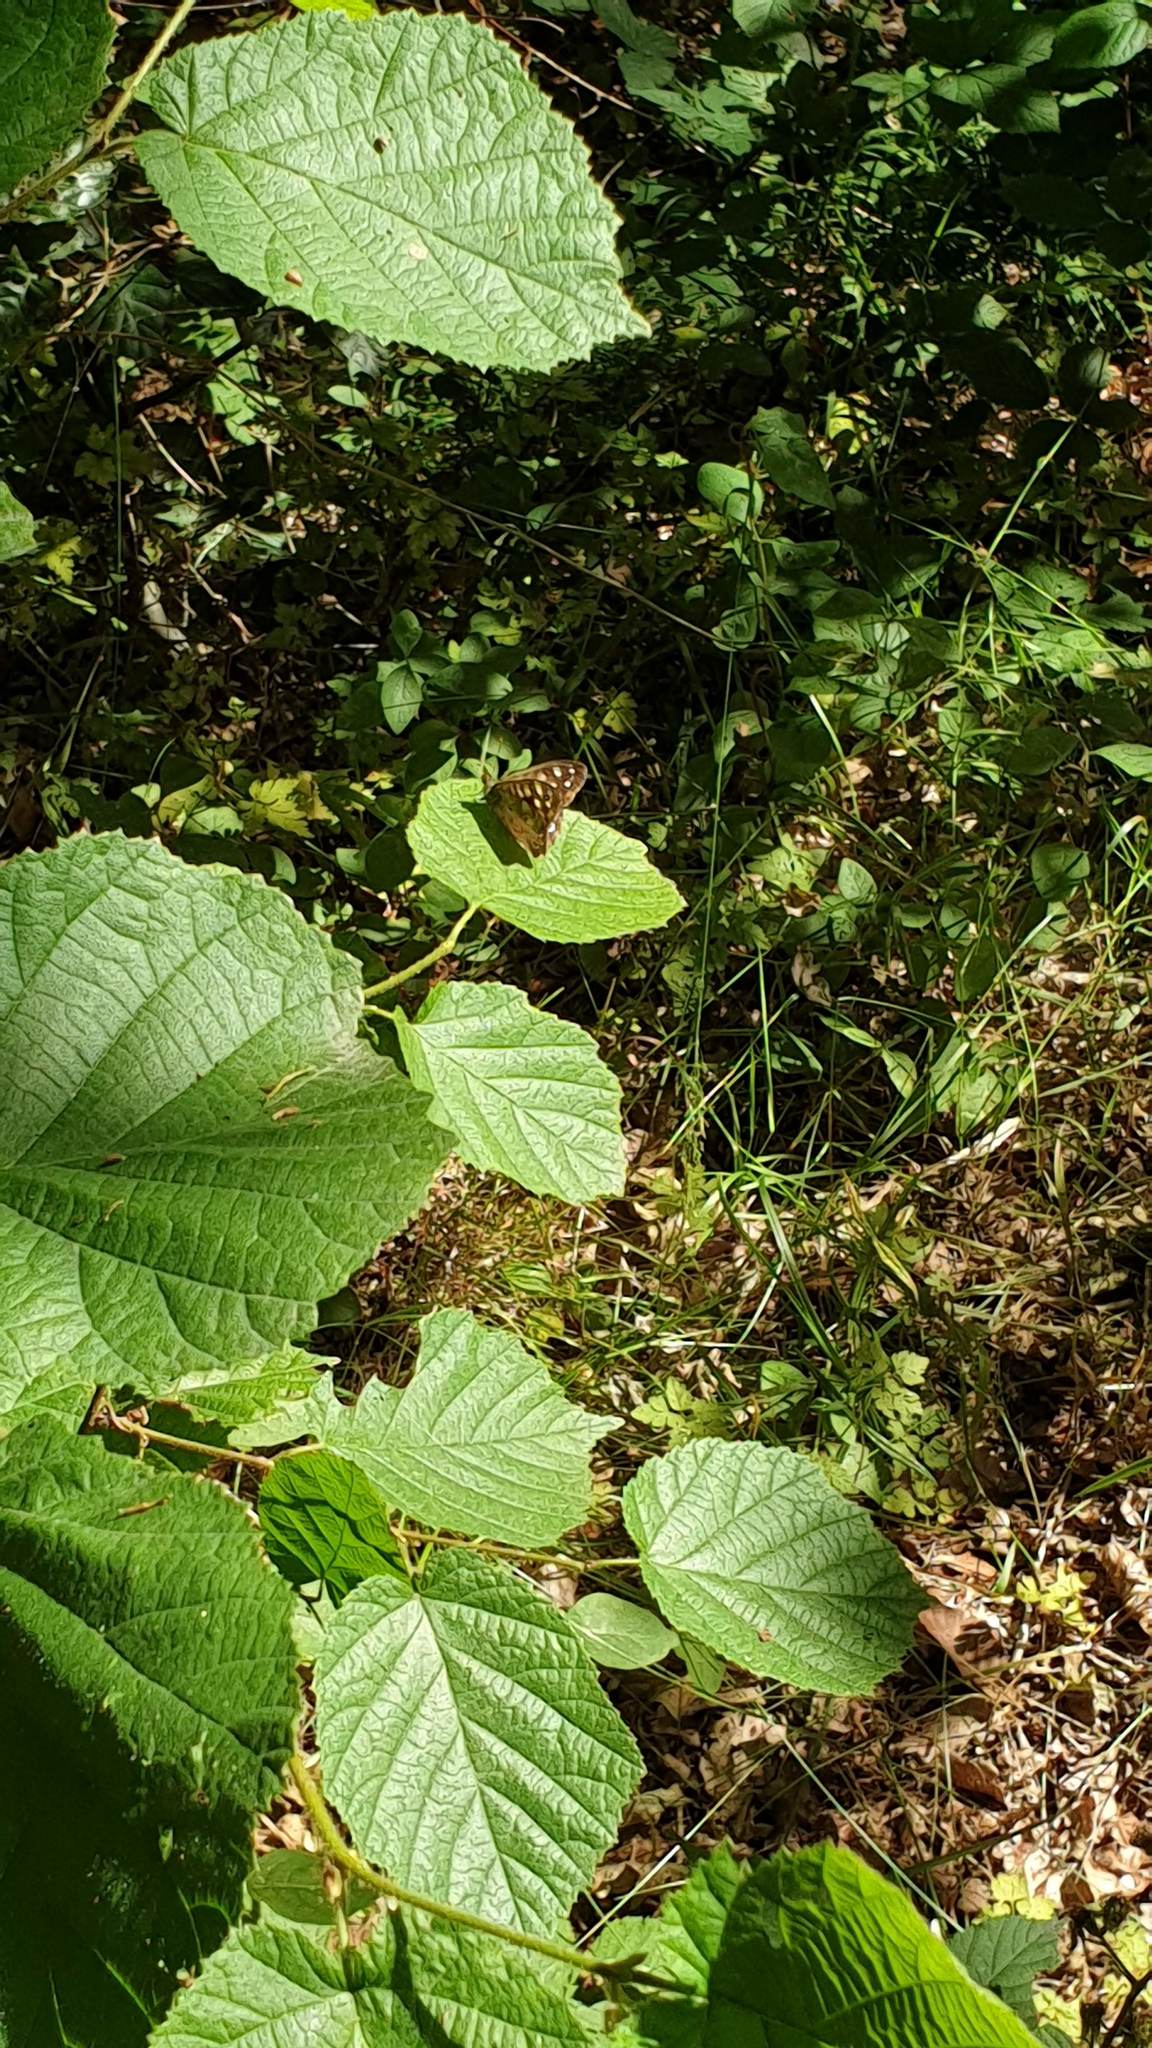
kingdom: Animalia
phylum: Arthropoda
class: Insecta
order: Lepidoptera
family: Nymphalidae
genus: Pararge
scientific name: Pararge aegeria
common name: Speckled wood
